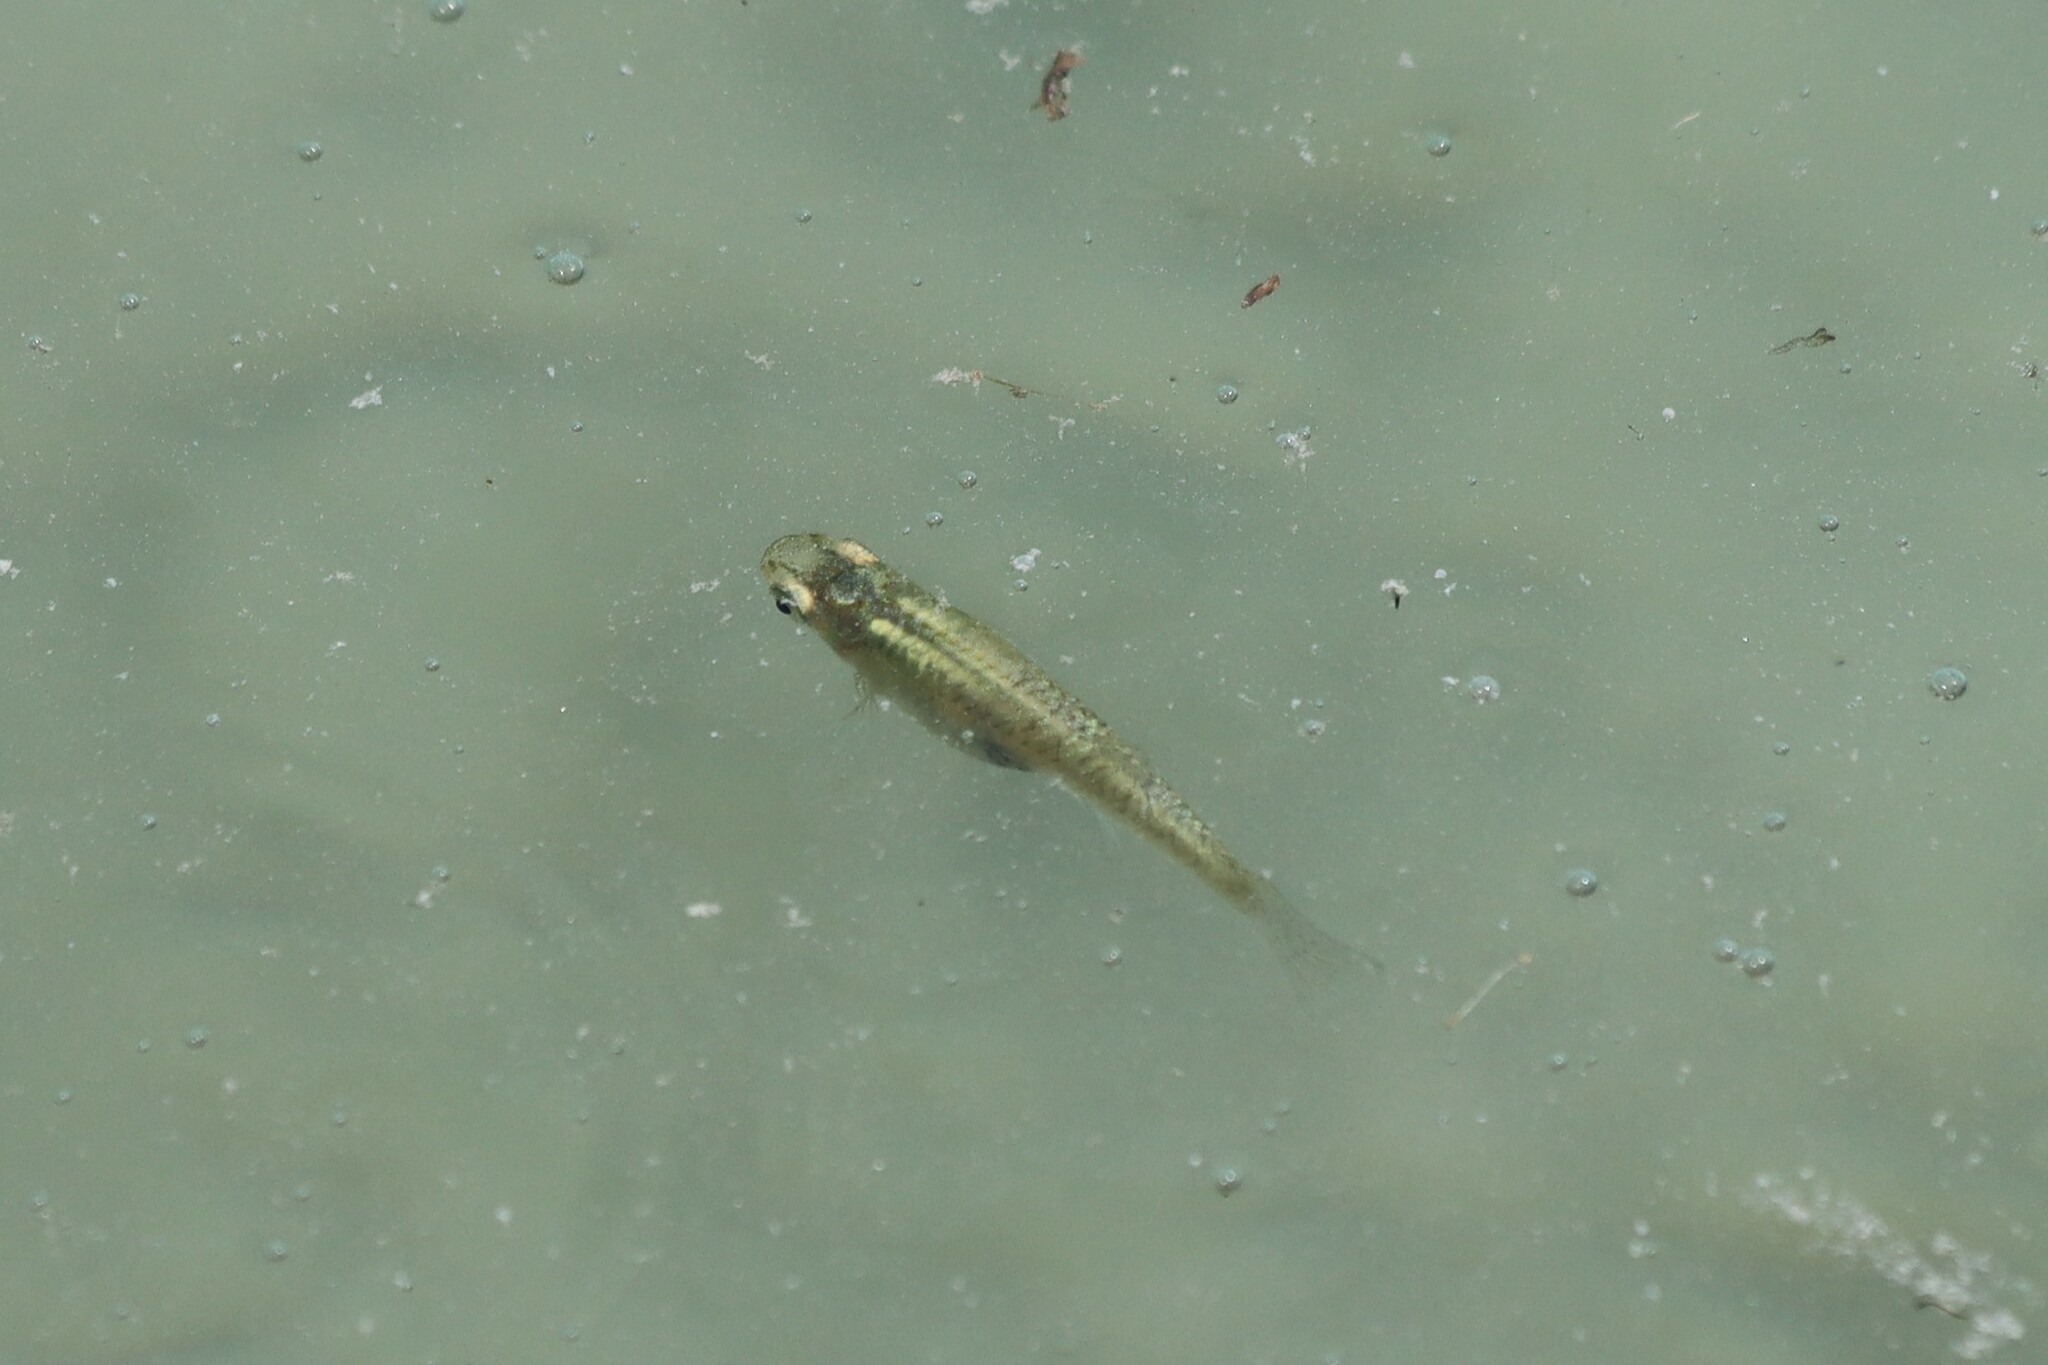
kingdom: Animalia
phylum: Chordata
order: Cyprinodontiformes
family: Poeciliidae
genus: Gambusia
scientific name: Gambusia holbrooki
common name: Eastern mosquitofish
